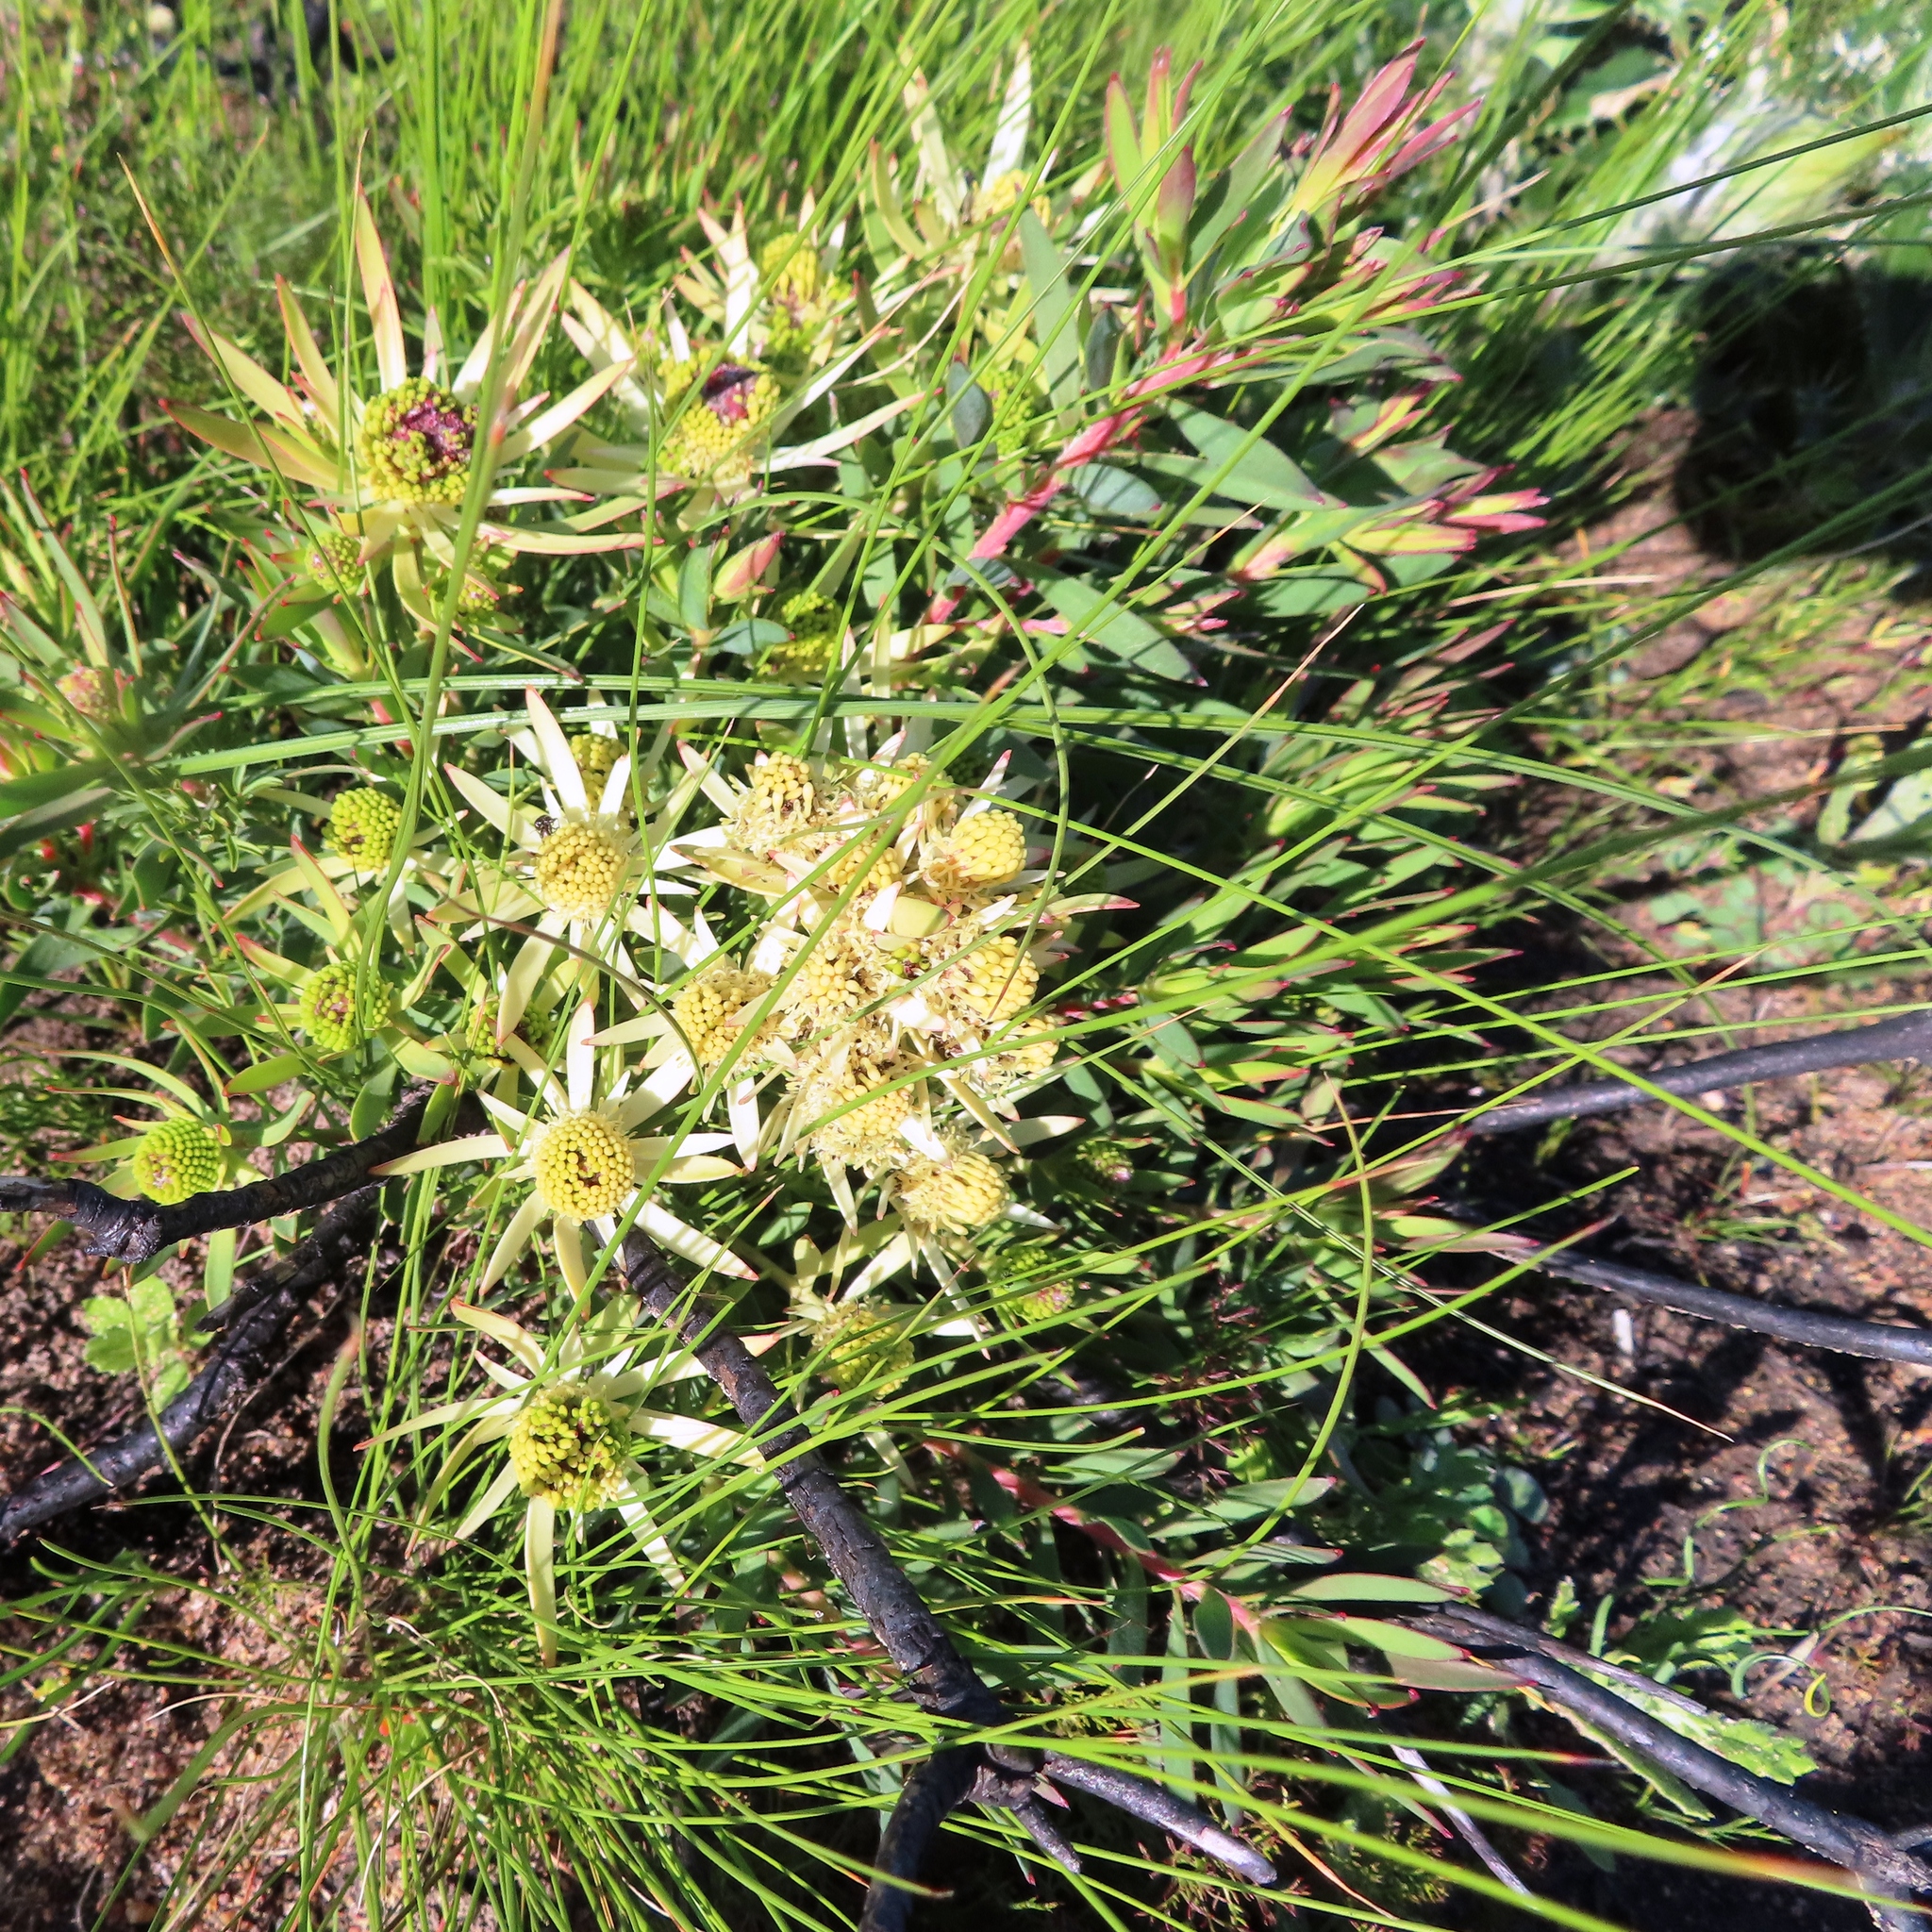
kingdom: Plantae
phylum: Tracheophyta
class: Magnoliopsida
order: Proteales
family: Proteaceae
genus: Leucadendron
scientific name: Leucadendron lanigerum
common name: Shale conebush
